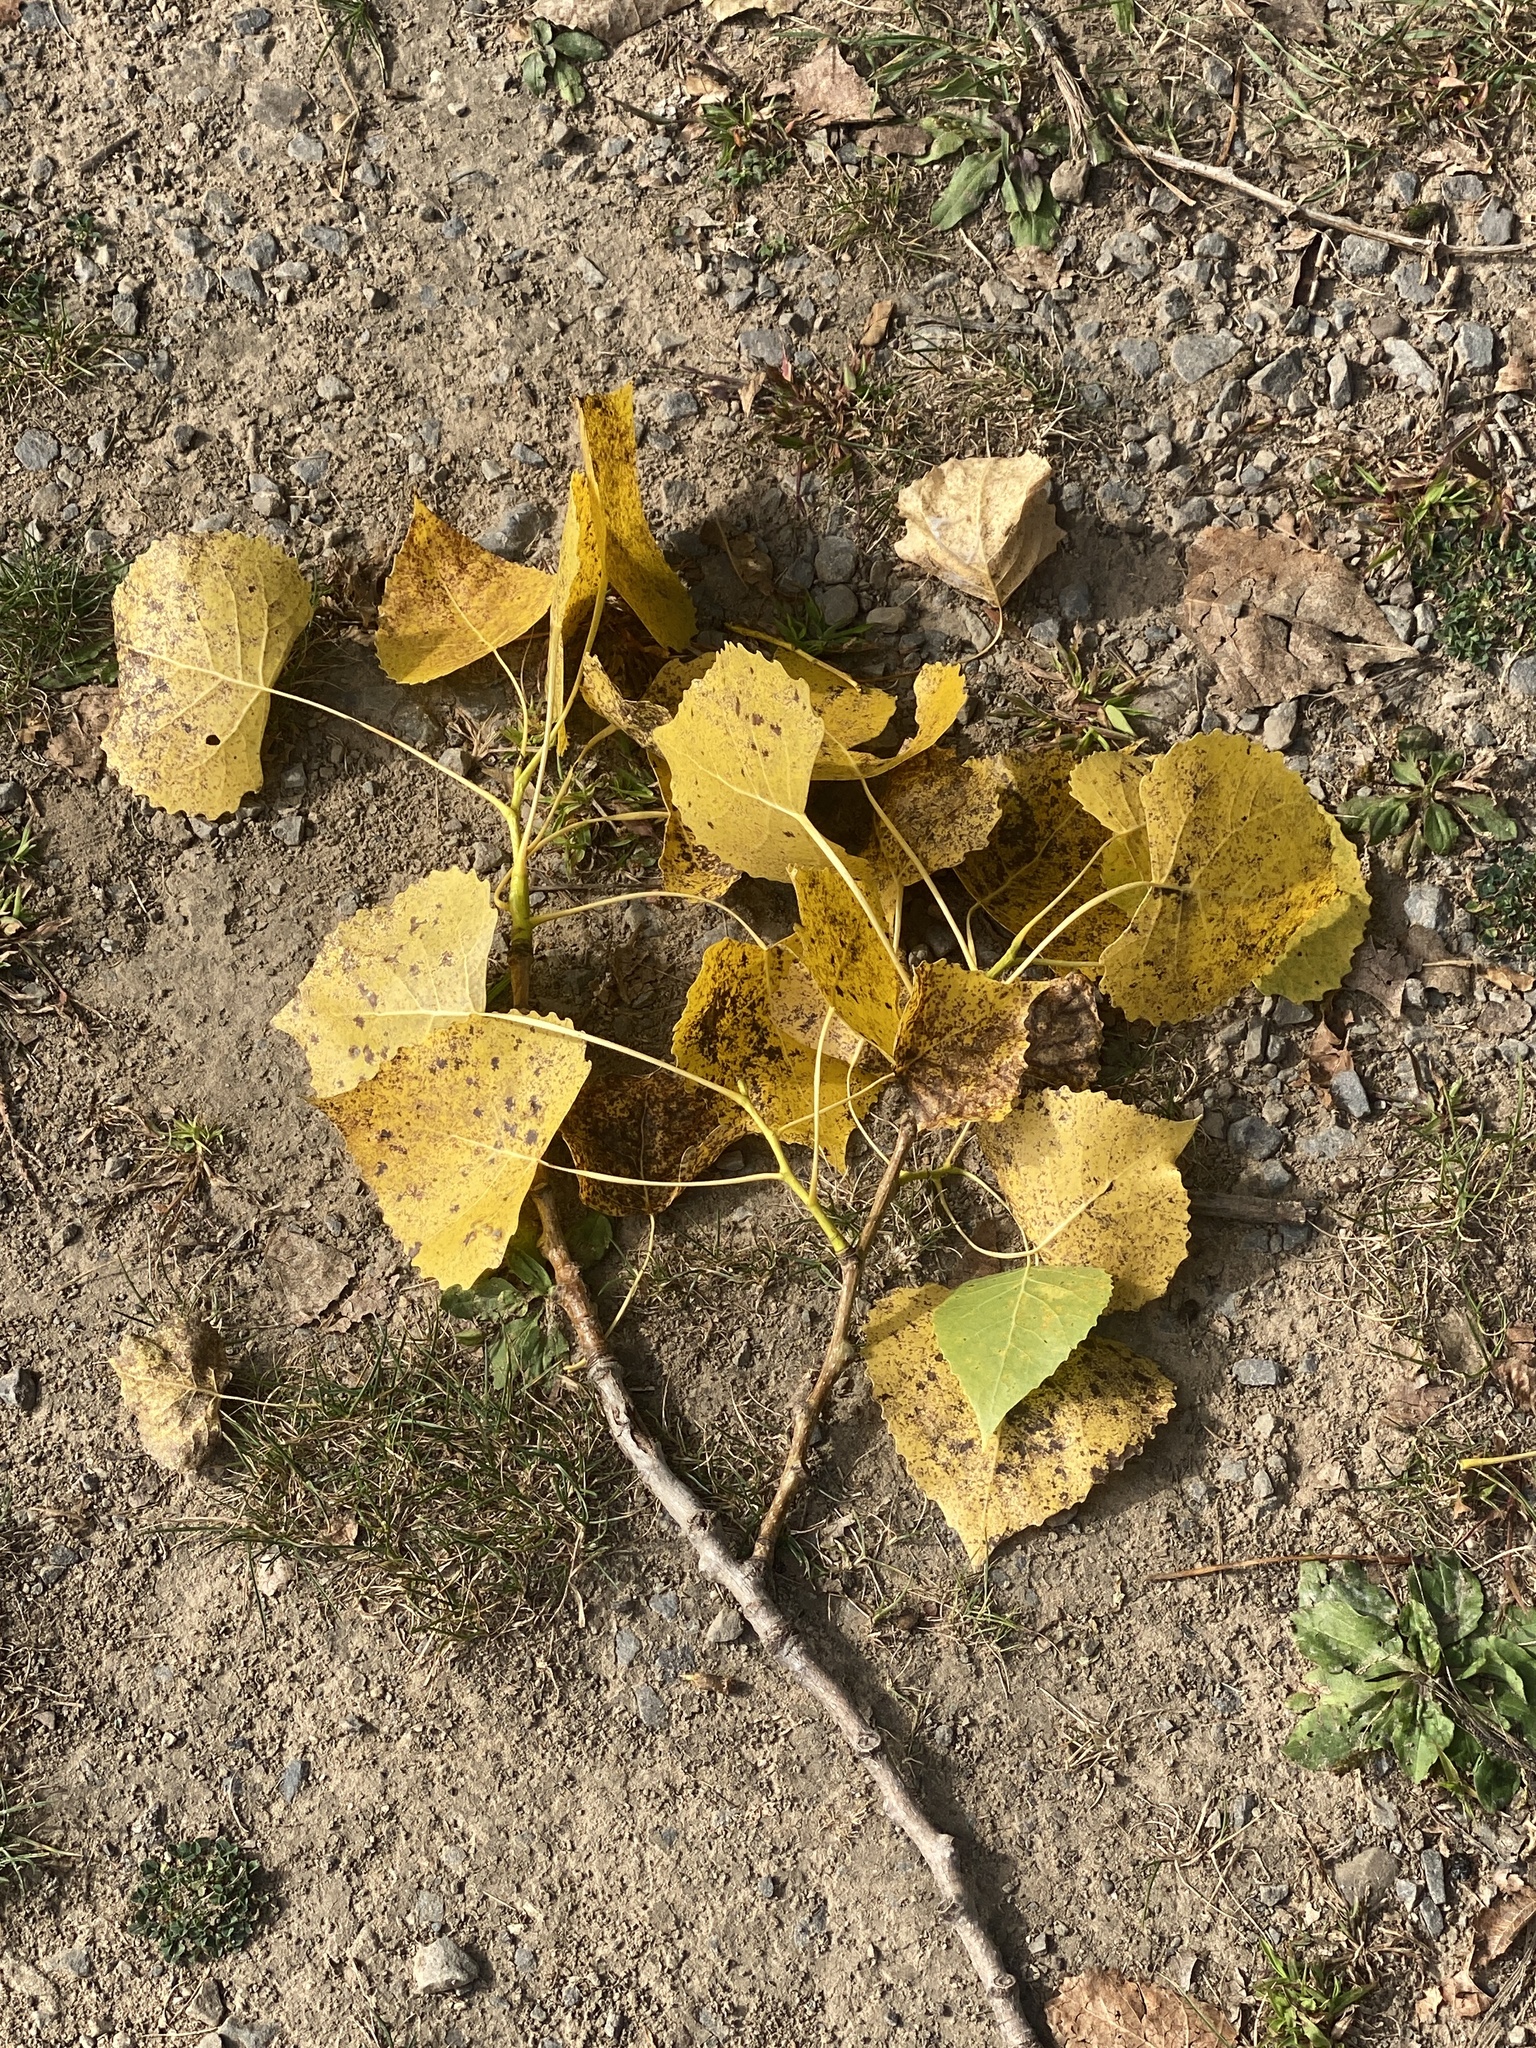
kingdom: Plantae
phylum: Tracheophyta
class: Magnoliopsida
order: Malpighiales
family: Salicaceae
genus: Populus
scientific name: Populus deltoides
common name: Eastern cottonwood
